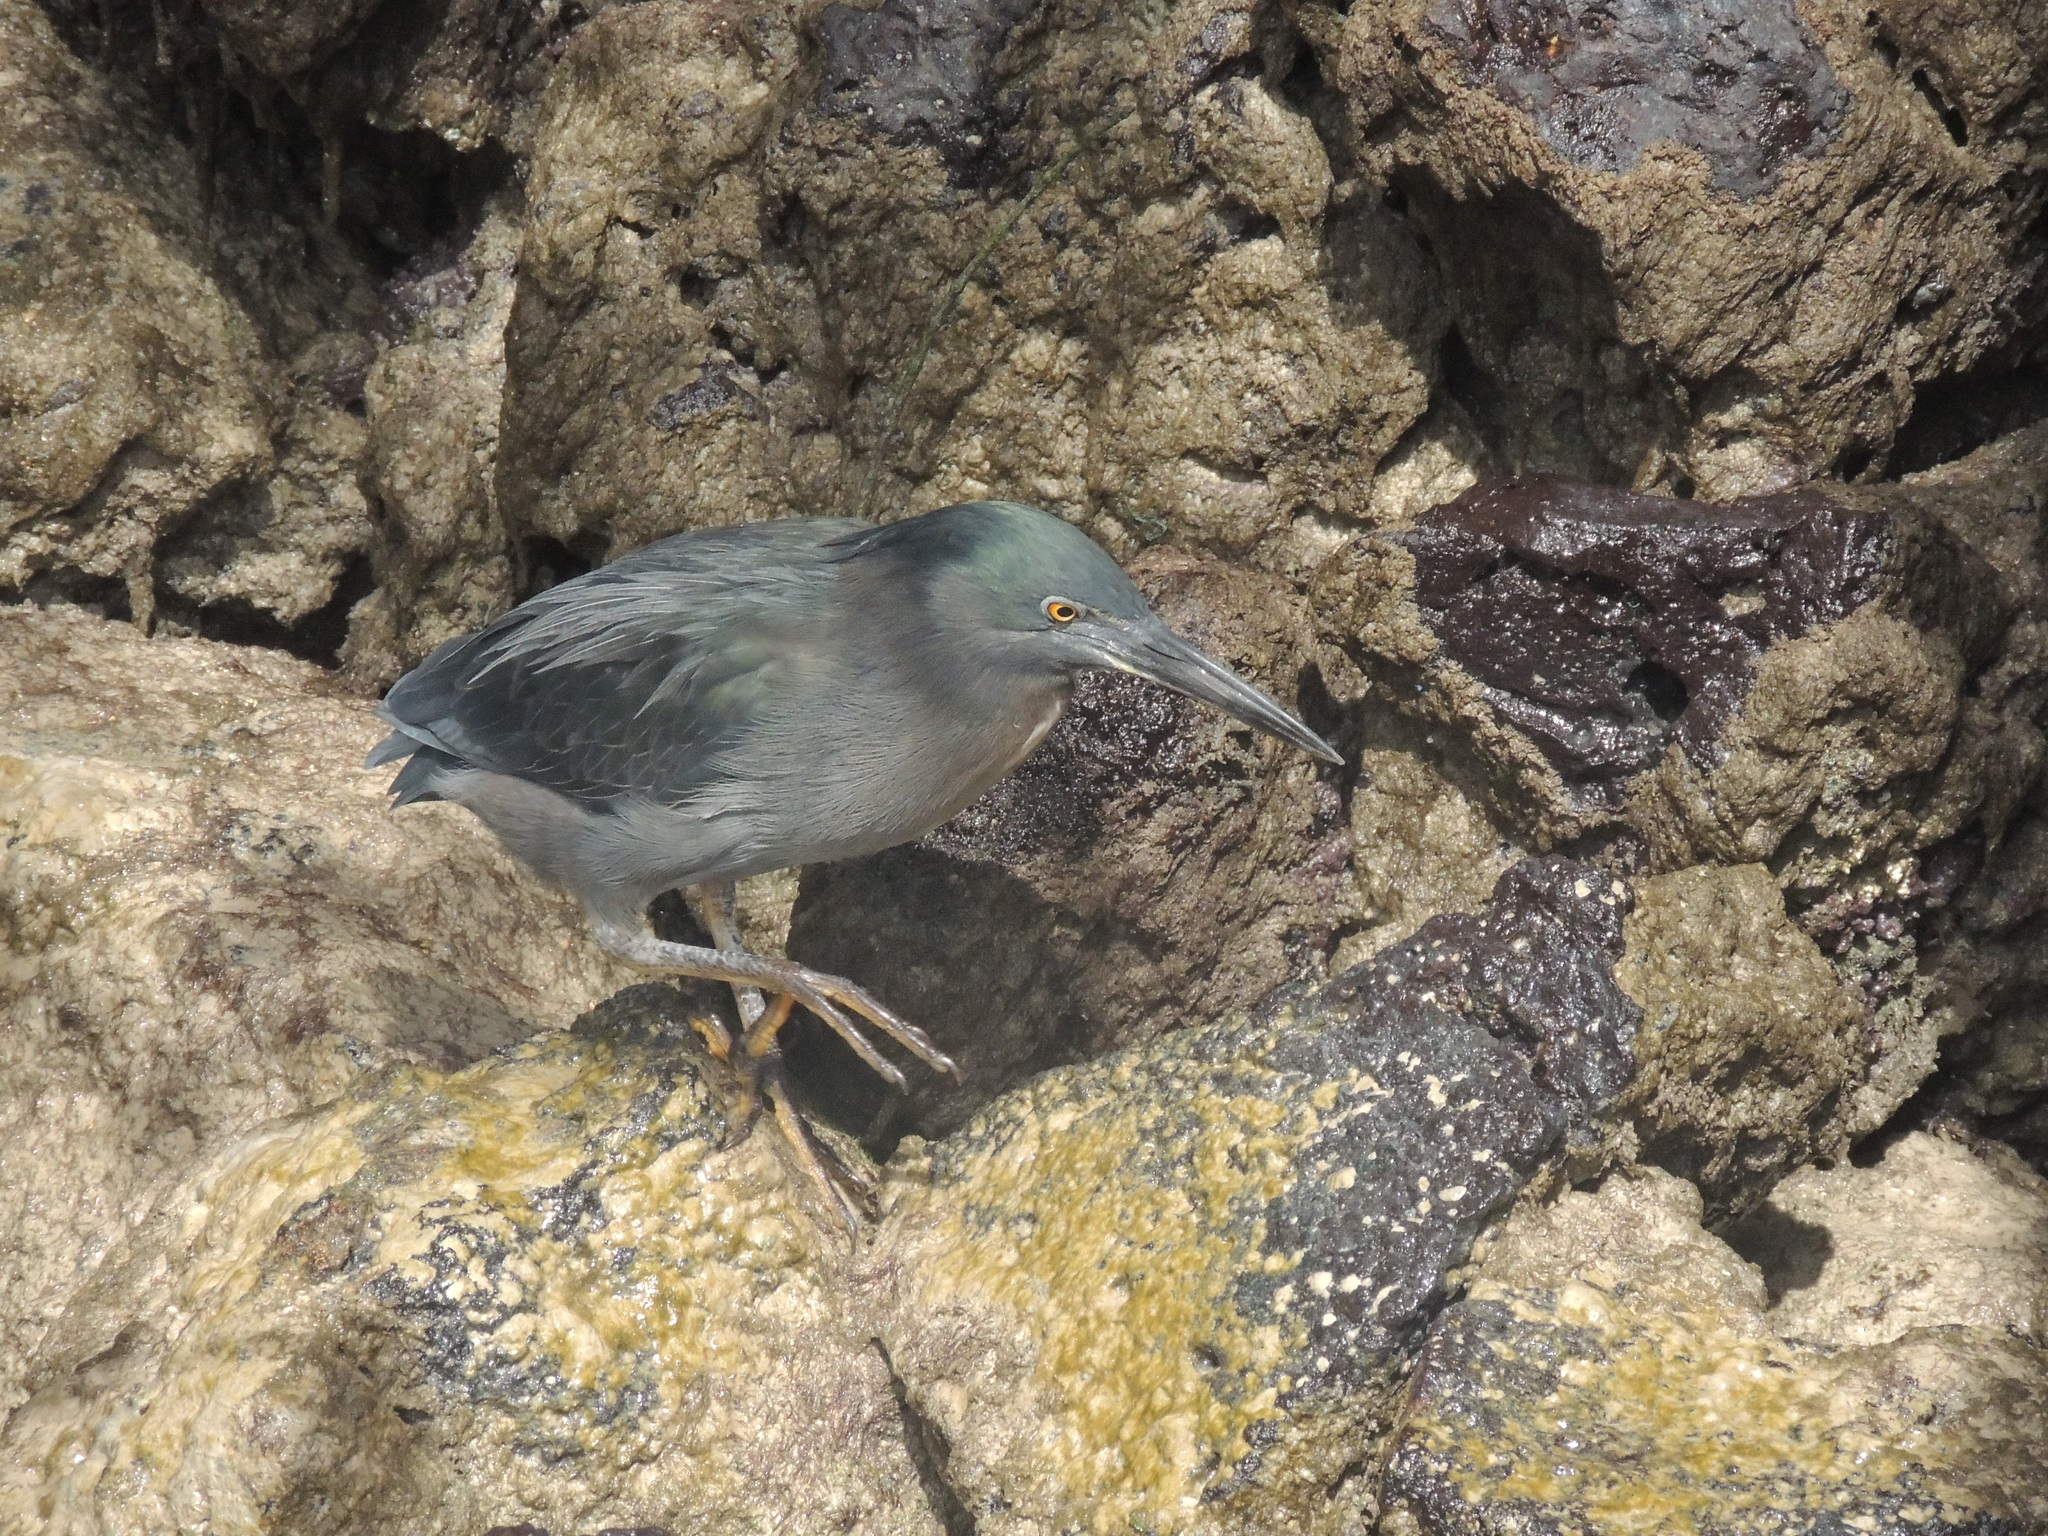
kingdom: Animalia
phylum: Chordata
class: Aves
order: Pelecaniformes
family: Ardeidae
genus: Butorides
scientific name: Butorides striata
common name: Striated heron
